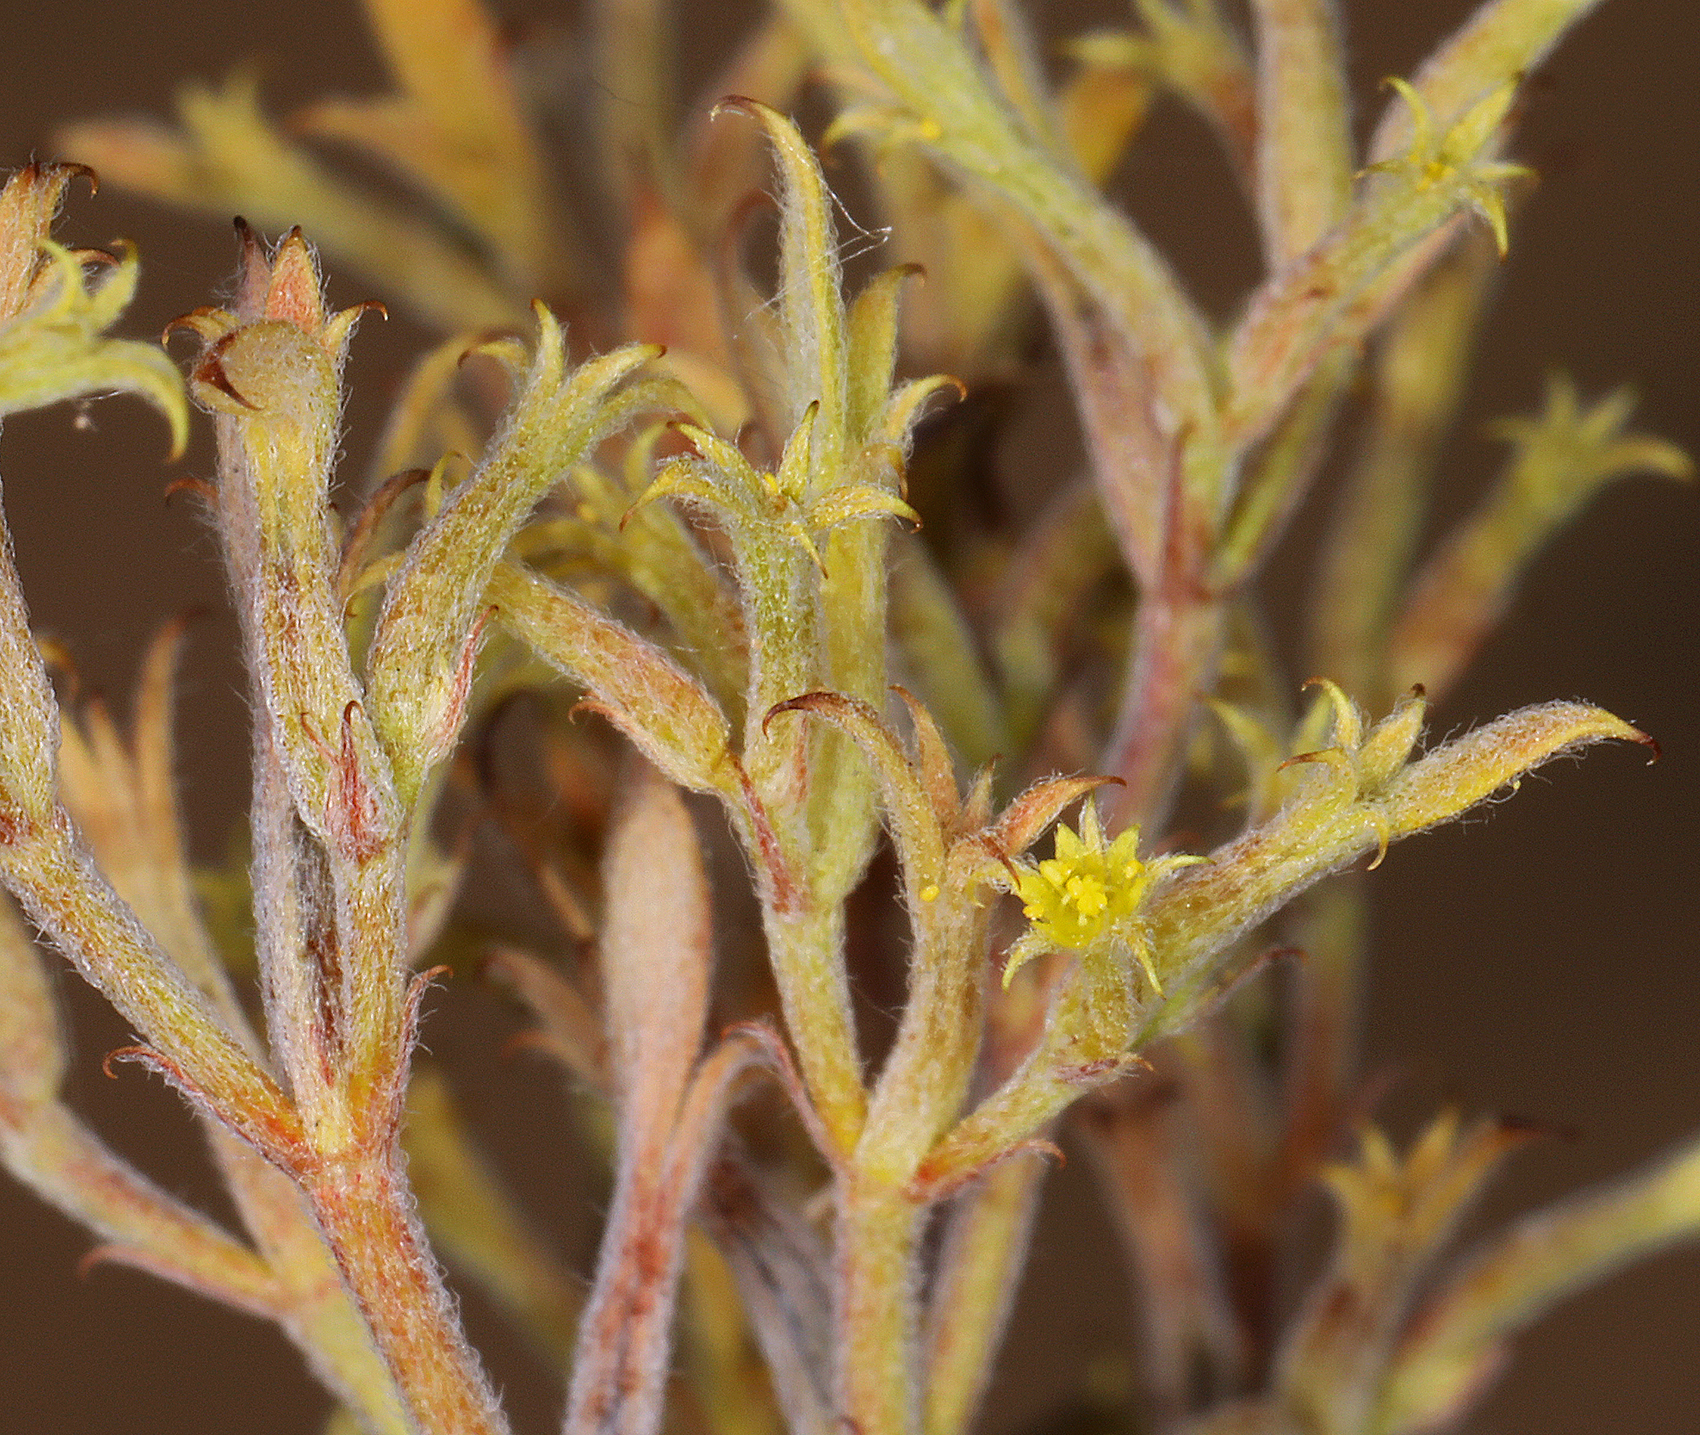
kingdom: Plantae
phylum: Tracheophyta
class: Magnoliopsida
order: Caryophyllales
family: Polygonaceae
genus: Chorizanthe
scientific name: Chorizanthe watsonii
